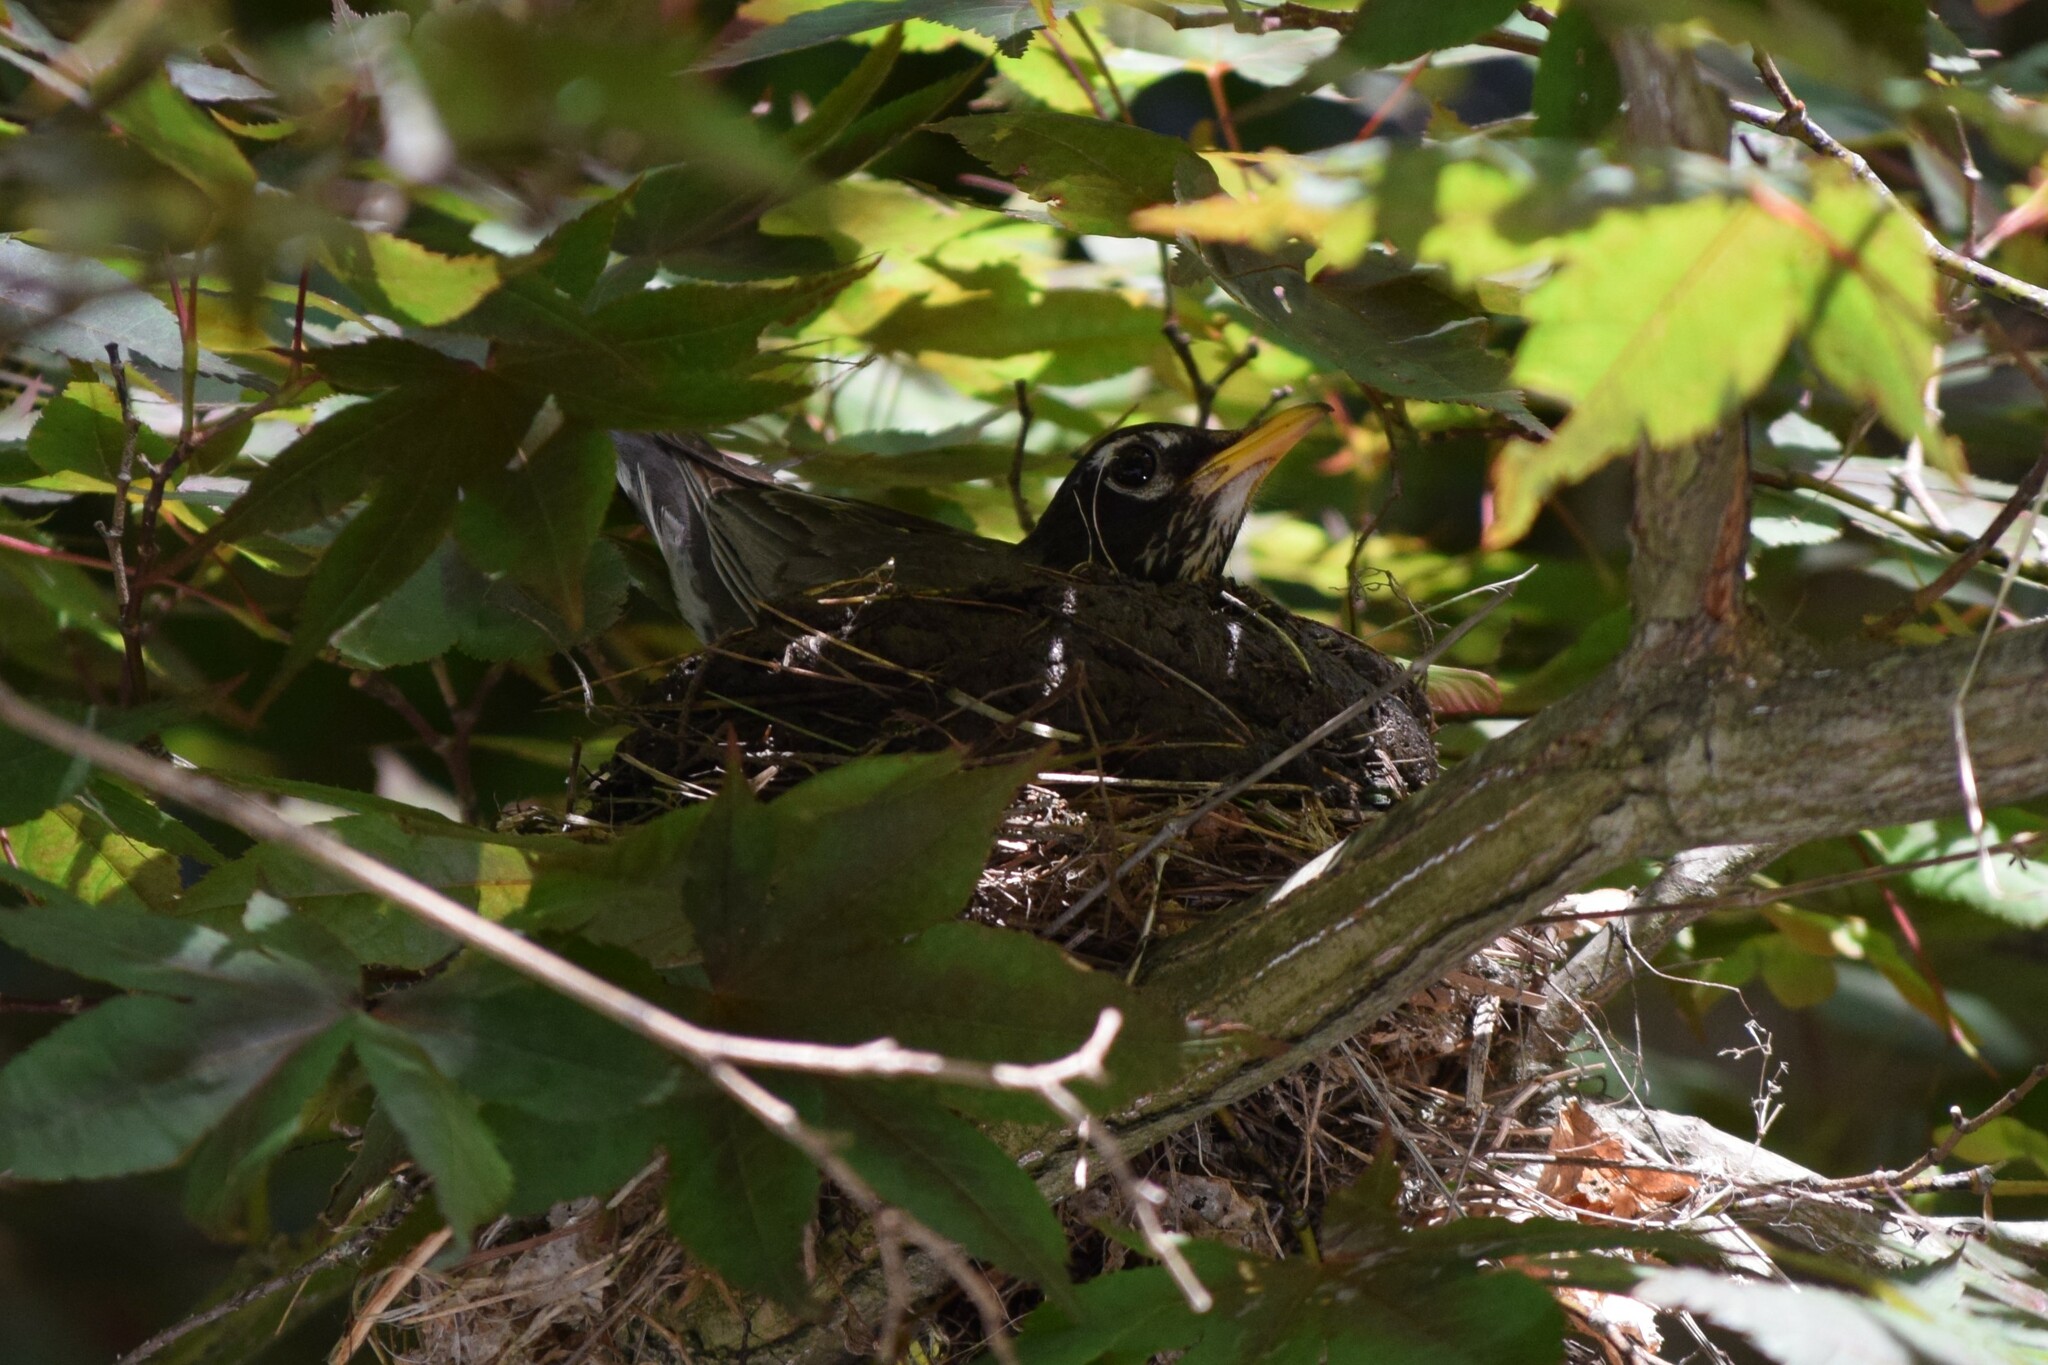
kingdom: Animalia
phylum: Chordata
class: Aves
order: Passeriformes
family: Turdidae
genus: Turdus
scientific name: Turdus migratorius
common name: American robin
